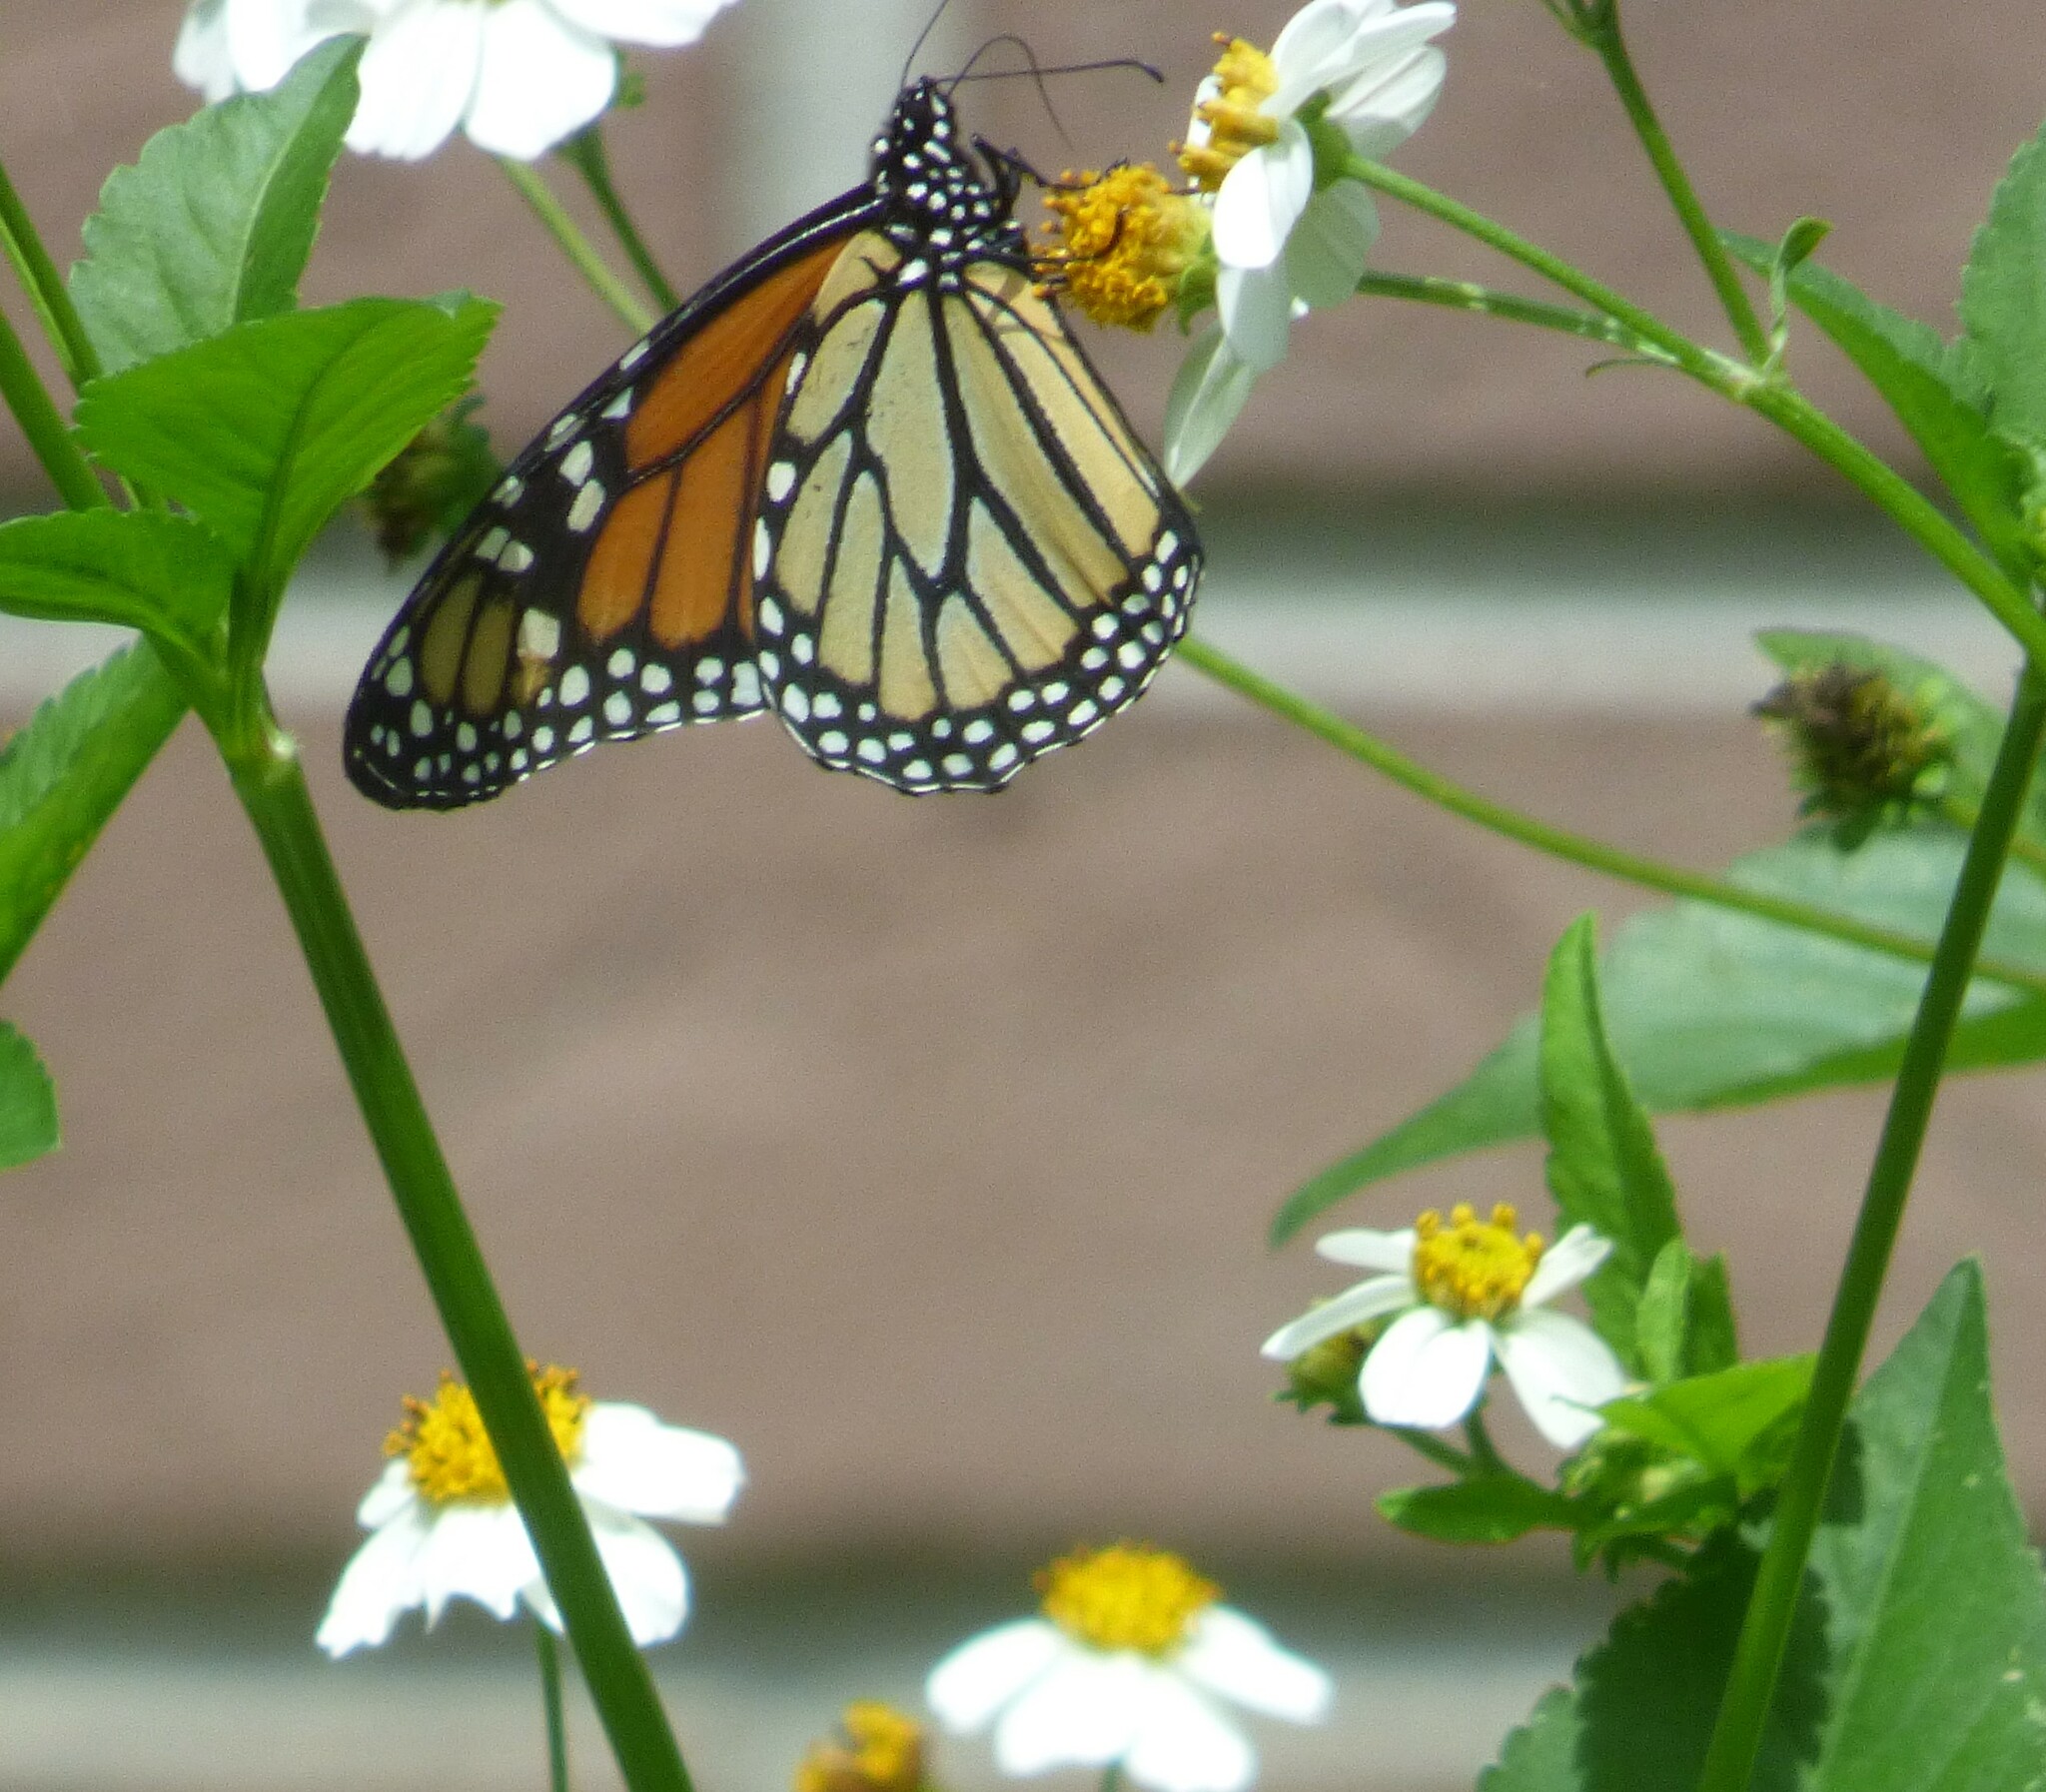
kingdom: Animalia
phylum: Arthropoda
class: Insecta
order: Lepidoptera
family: Nymphalidae
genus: Danaus
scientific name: Danaus plexippus
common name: Monarch
